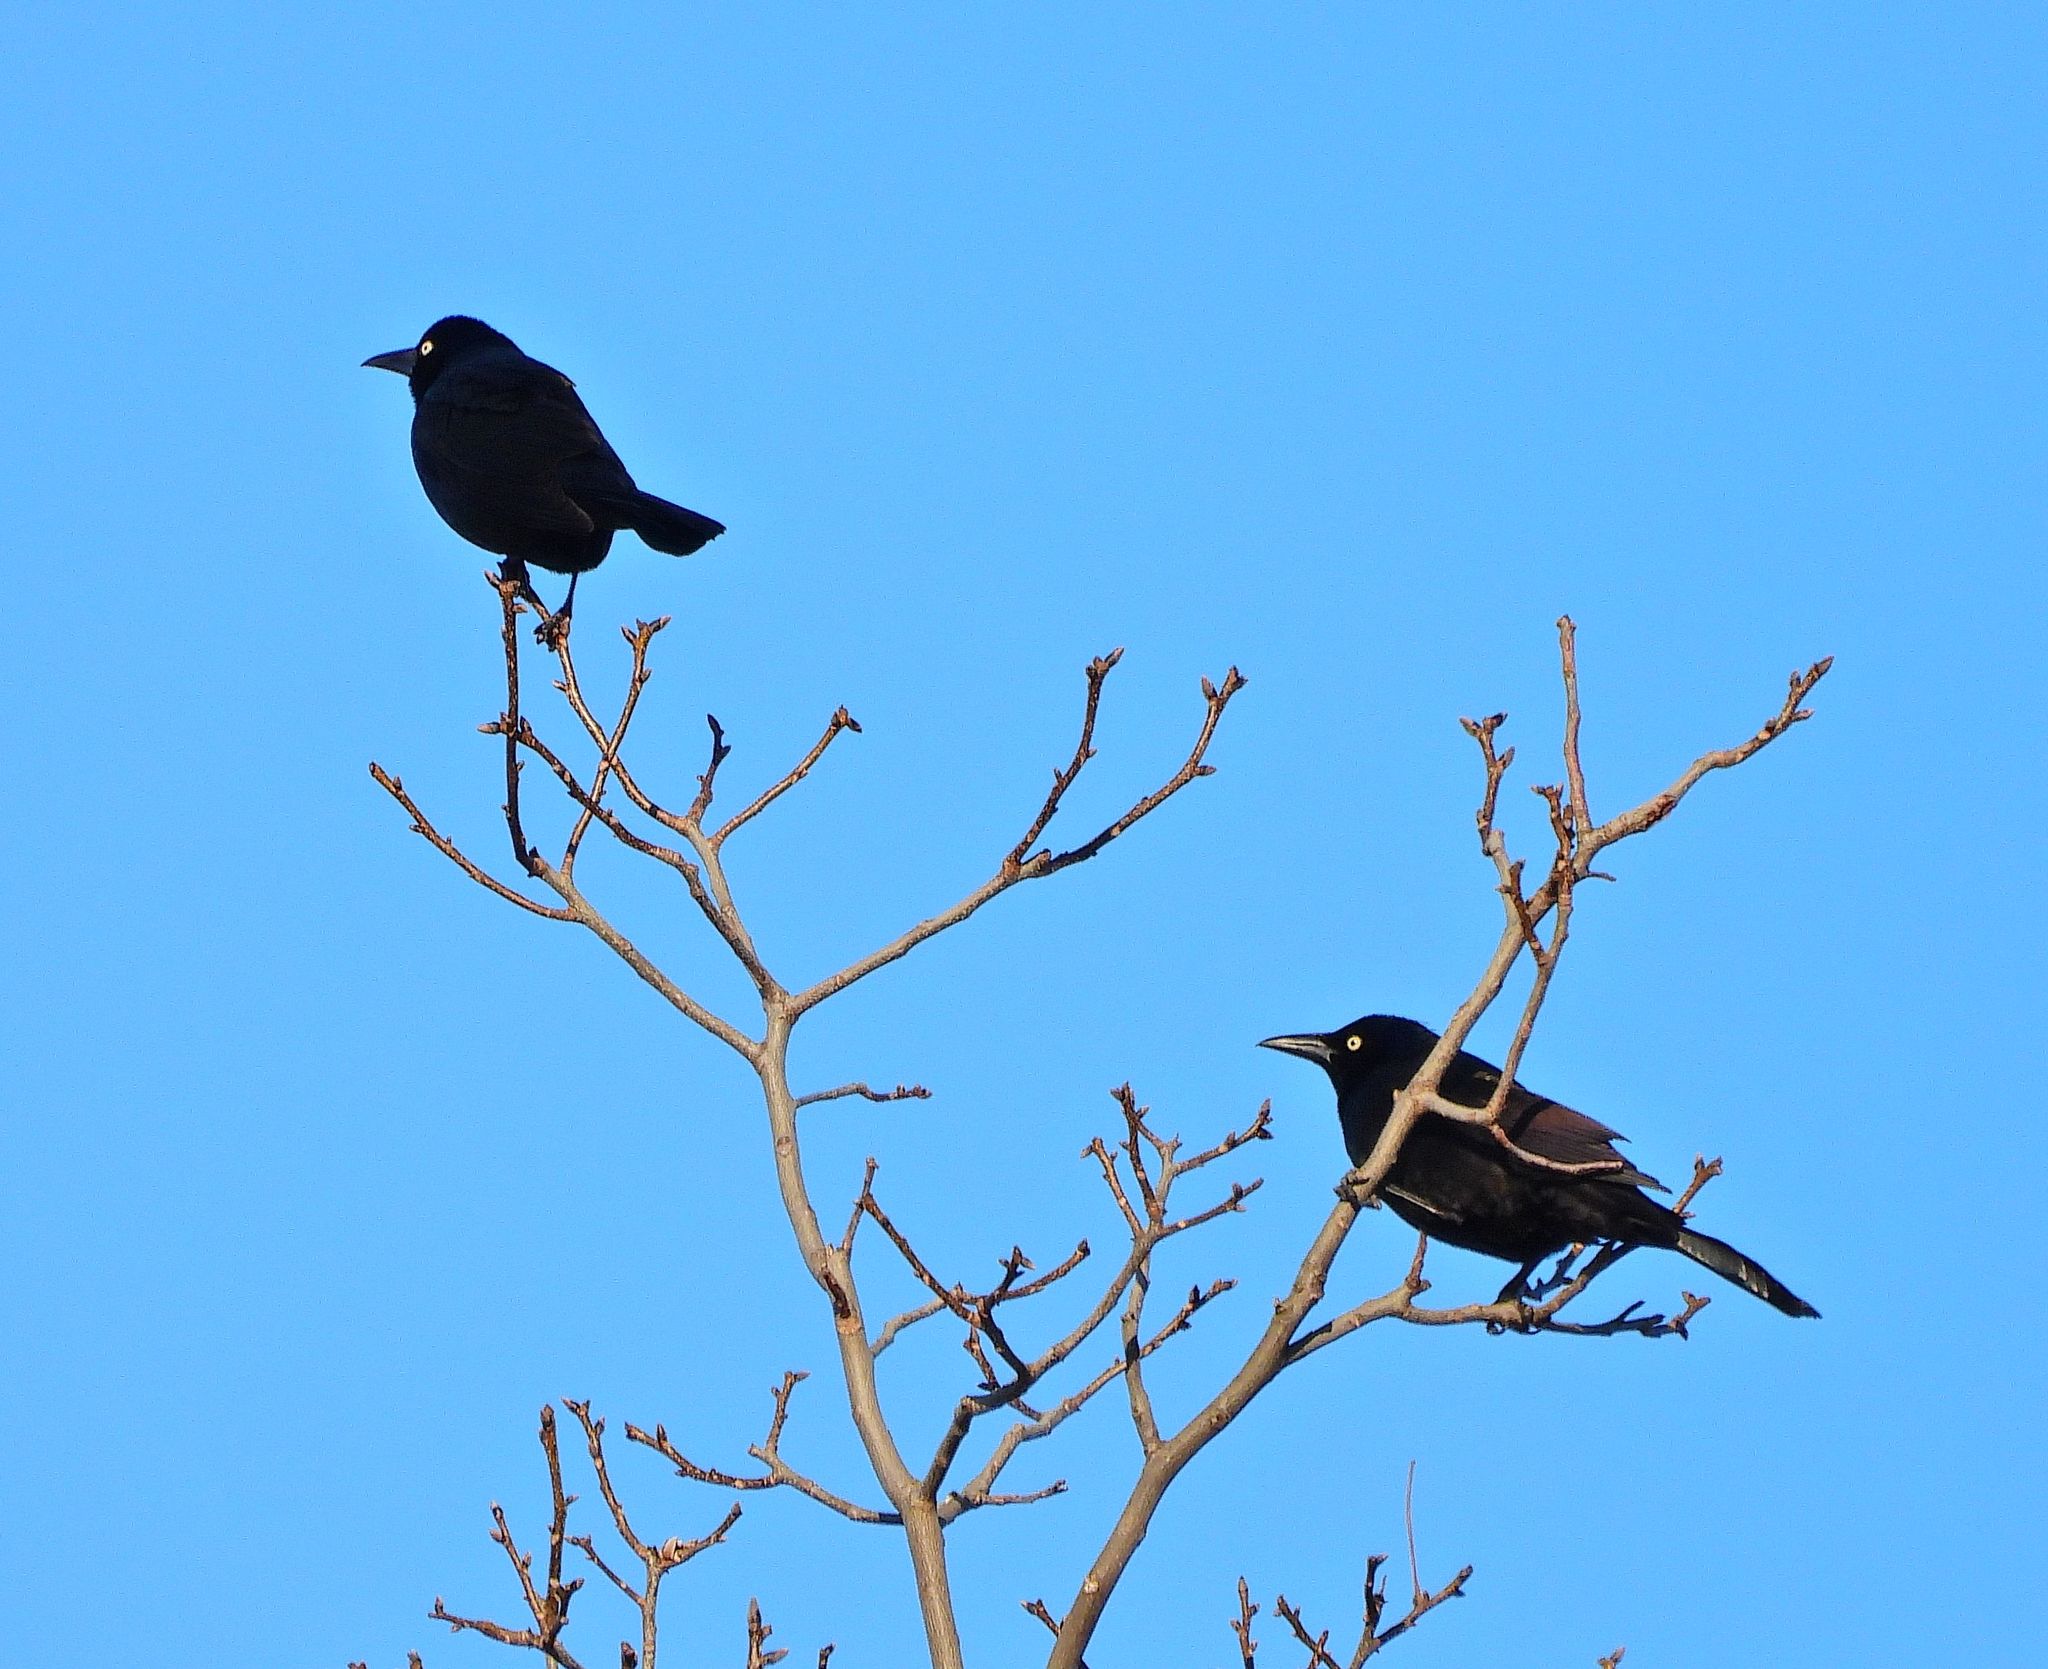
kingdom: Animalia
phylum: Chordata
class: Aves
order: Passeriformes
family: Icteridae
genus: Quiscalus
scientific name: Quiscalus quiscula
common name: Common grackle
